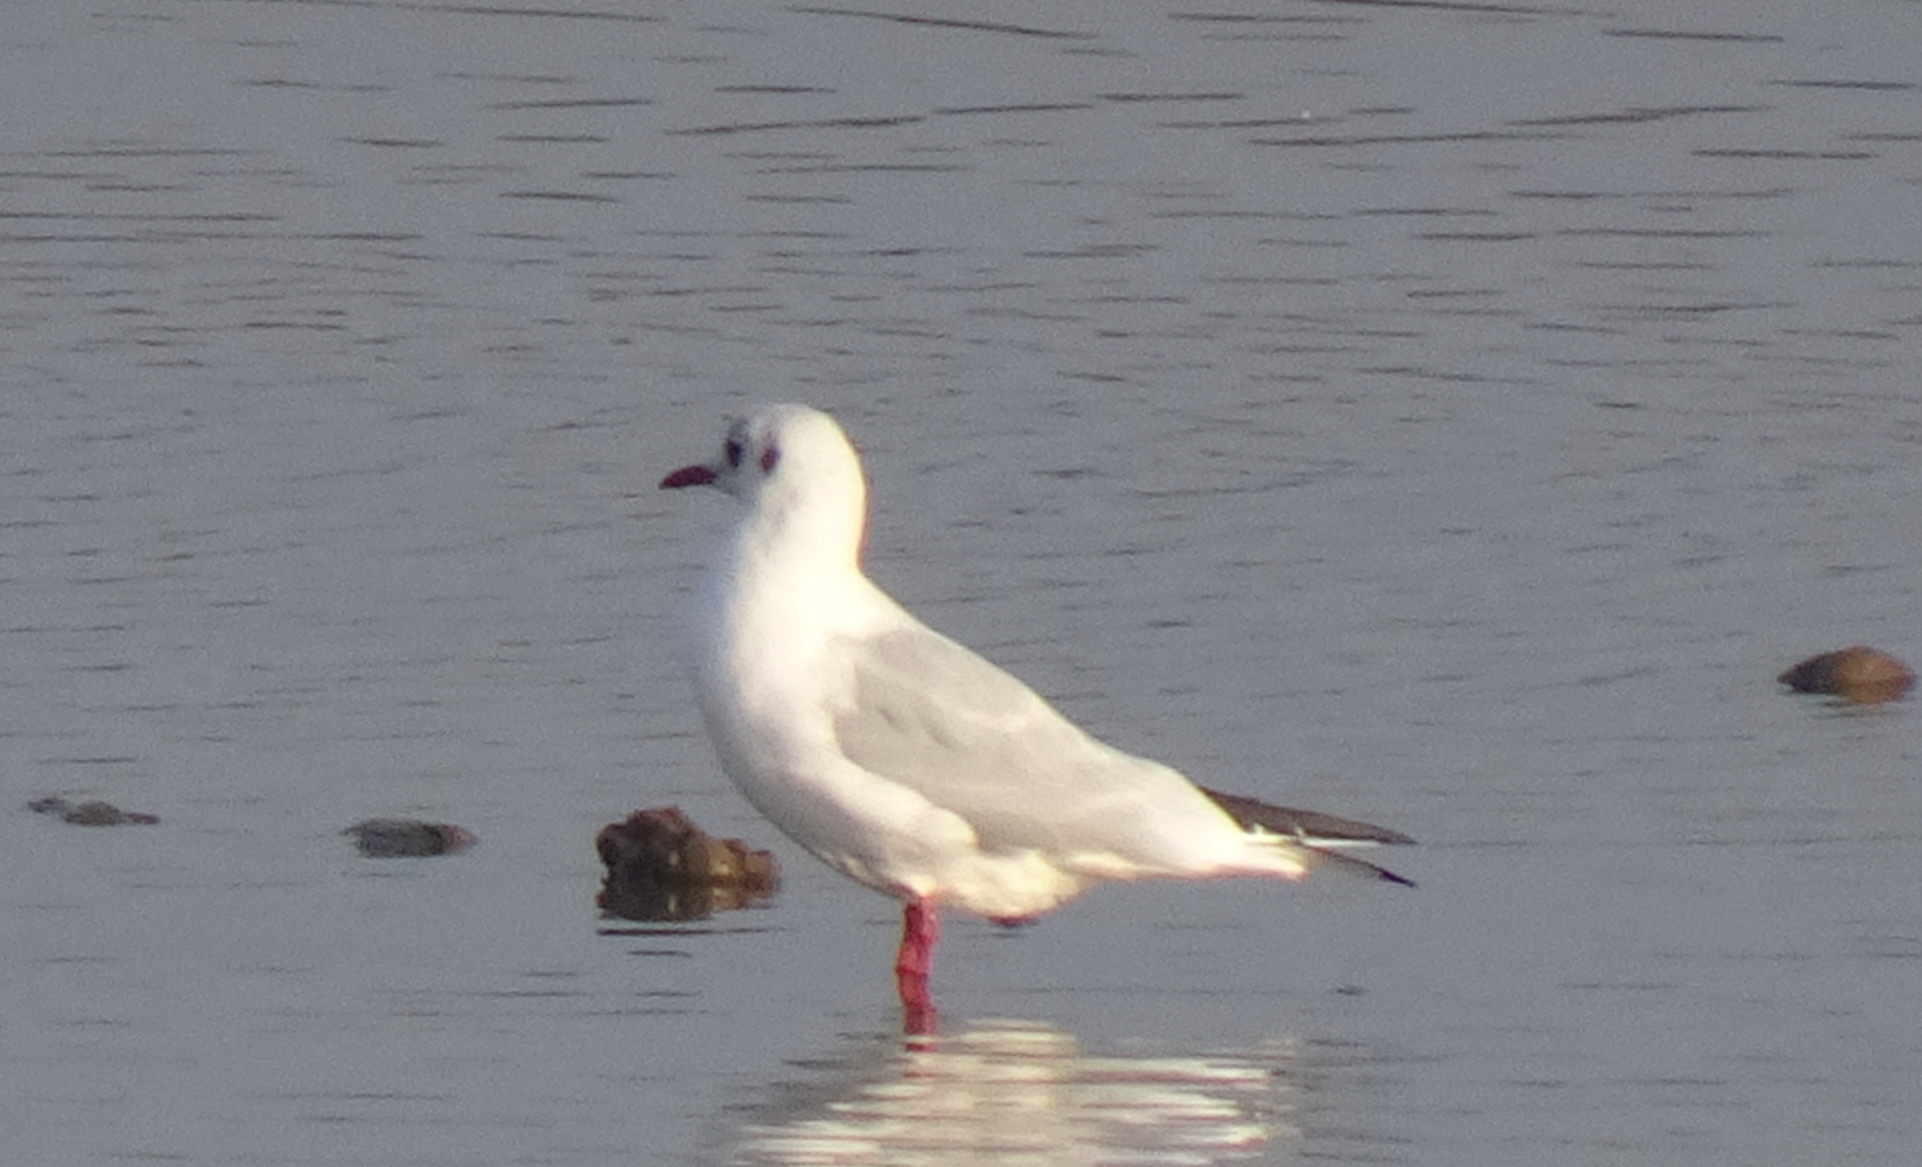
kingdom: Animalia
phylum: Chordata
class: Aves
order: Charadriiformes
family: Laridae
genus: Chroicocephalus
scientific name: Chroicocephalus ridibundus
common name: Black-headed gull
